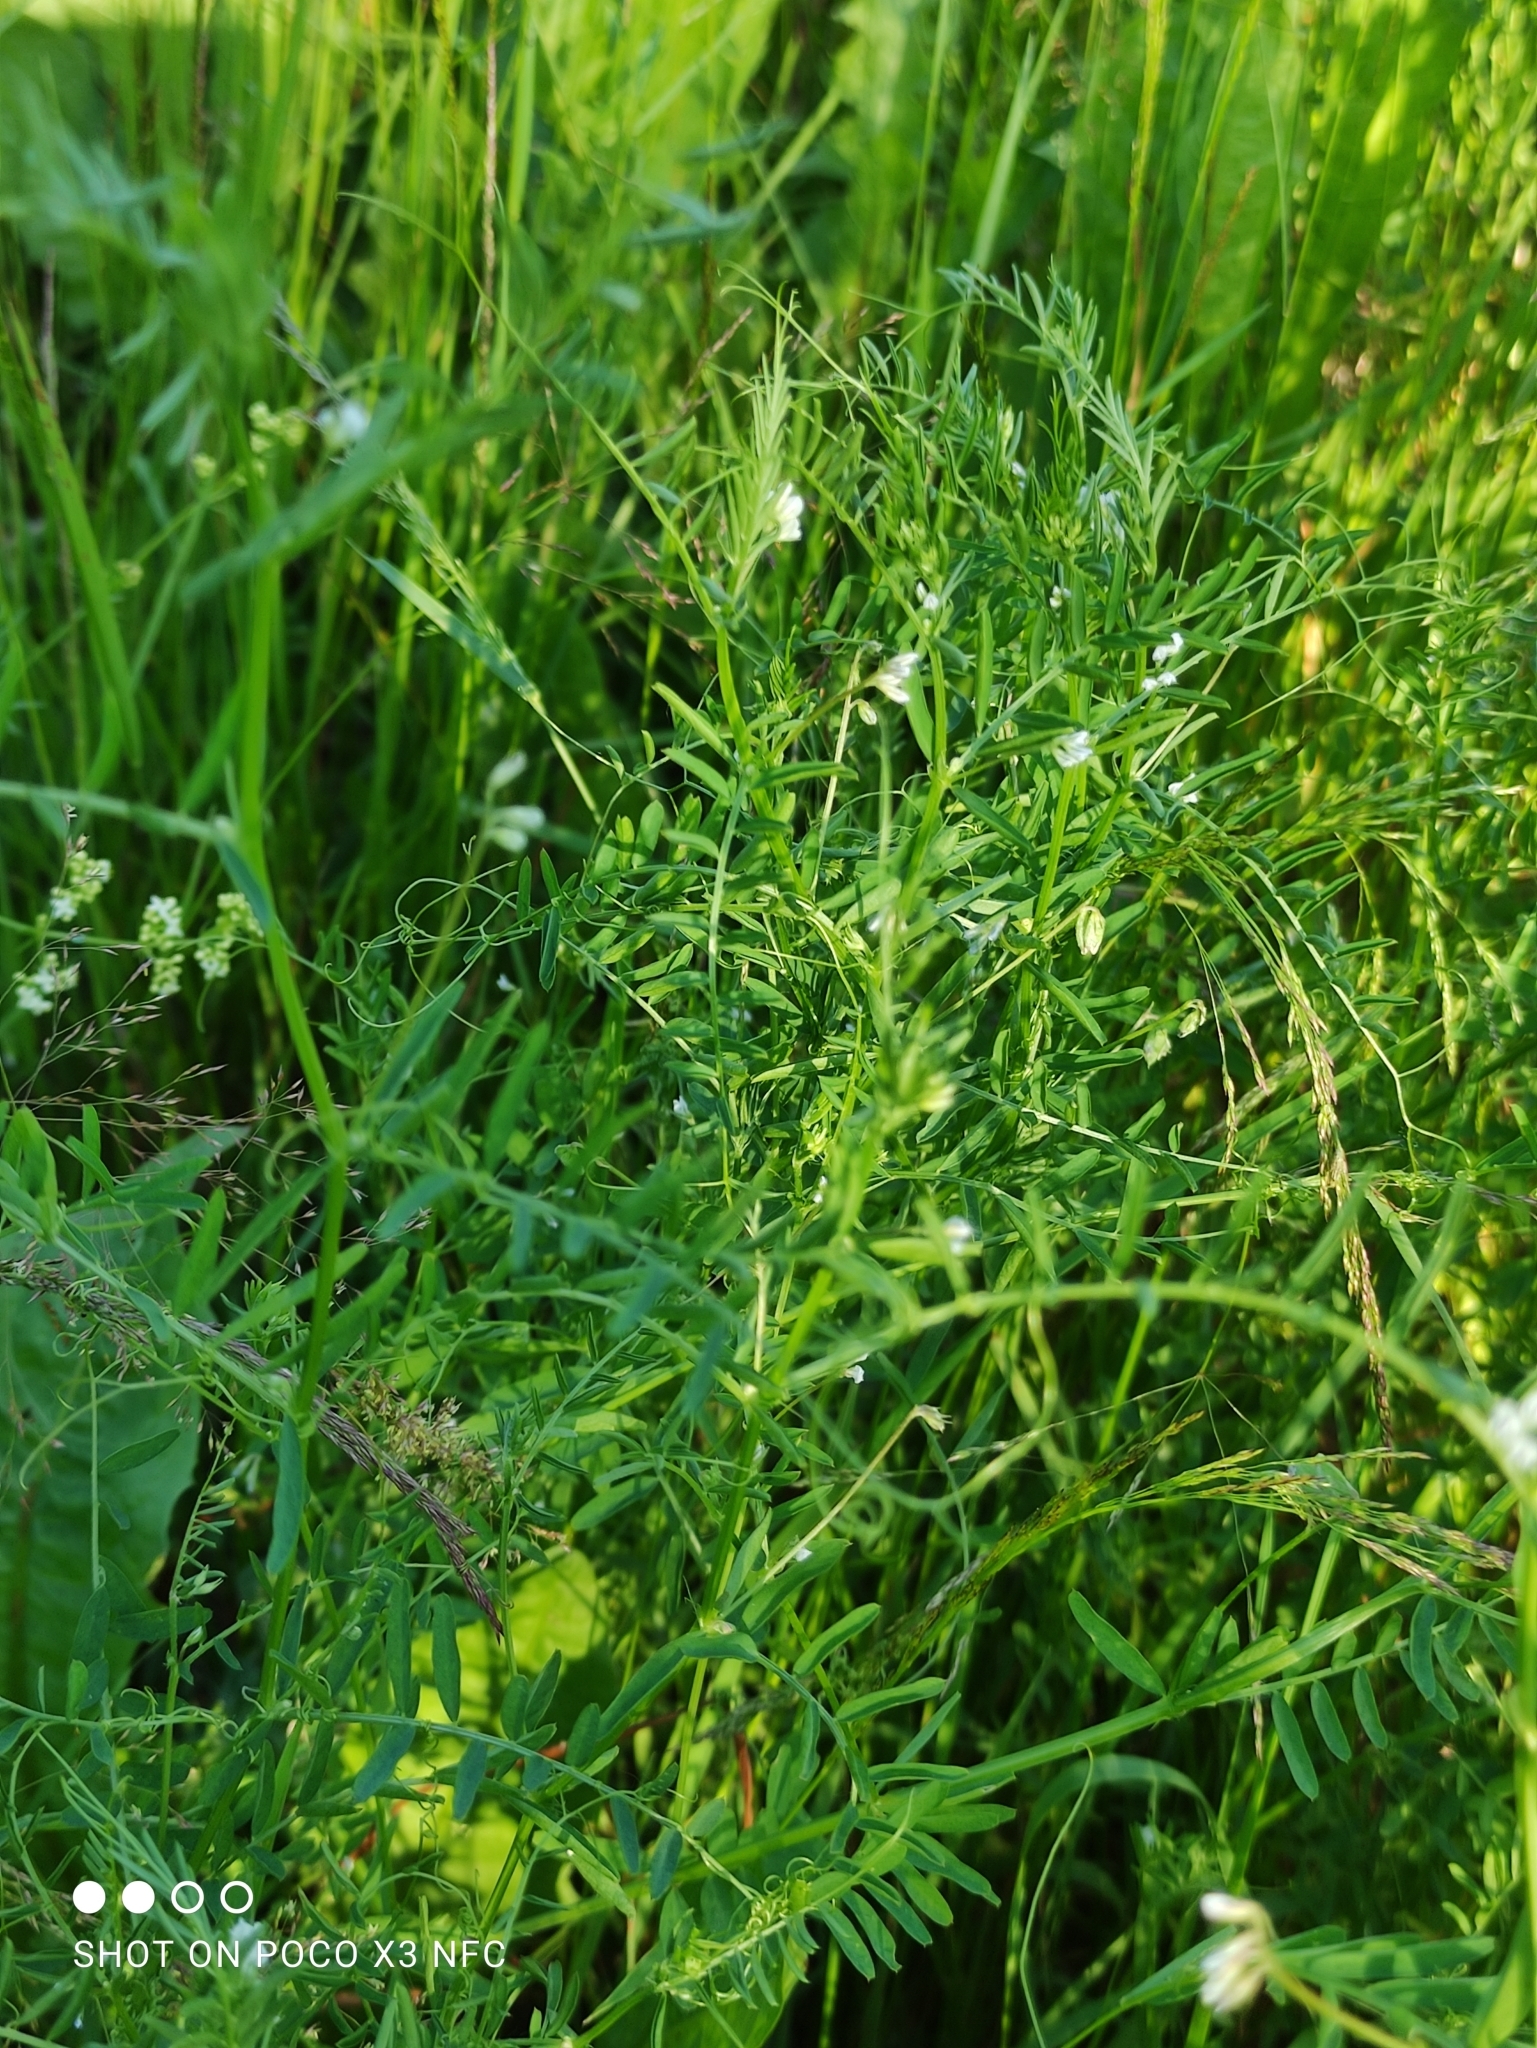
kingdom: Plantae
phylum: Tracheophyta
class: Magnoliopsida
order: Fabales
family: Fabaceae
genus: Vicia
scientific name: Vicia tetrasperma
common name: Smooth tare
